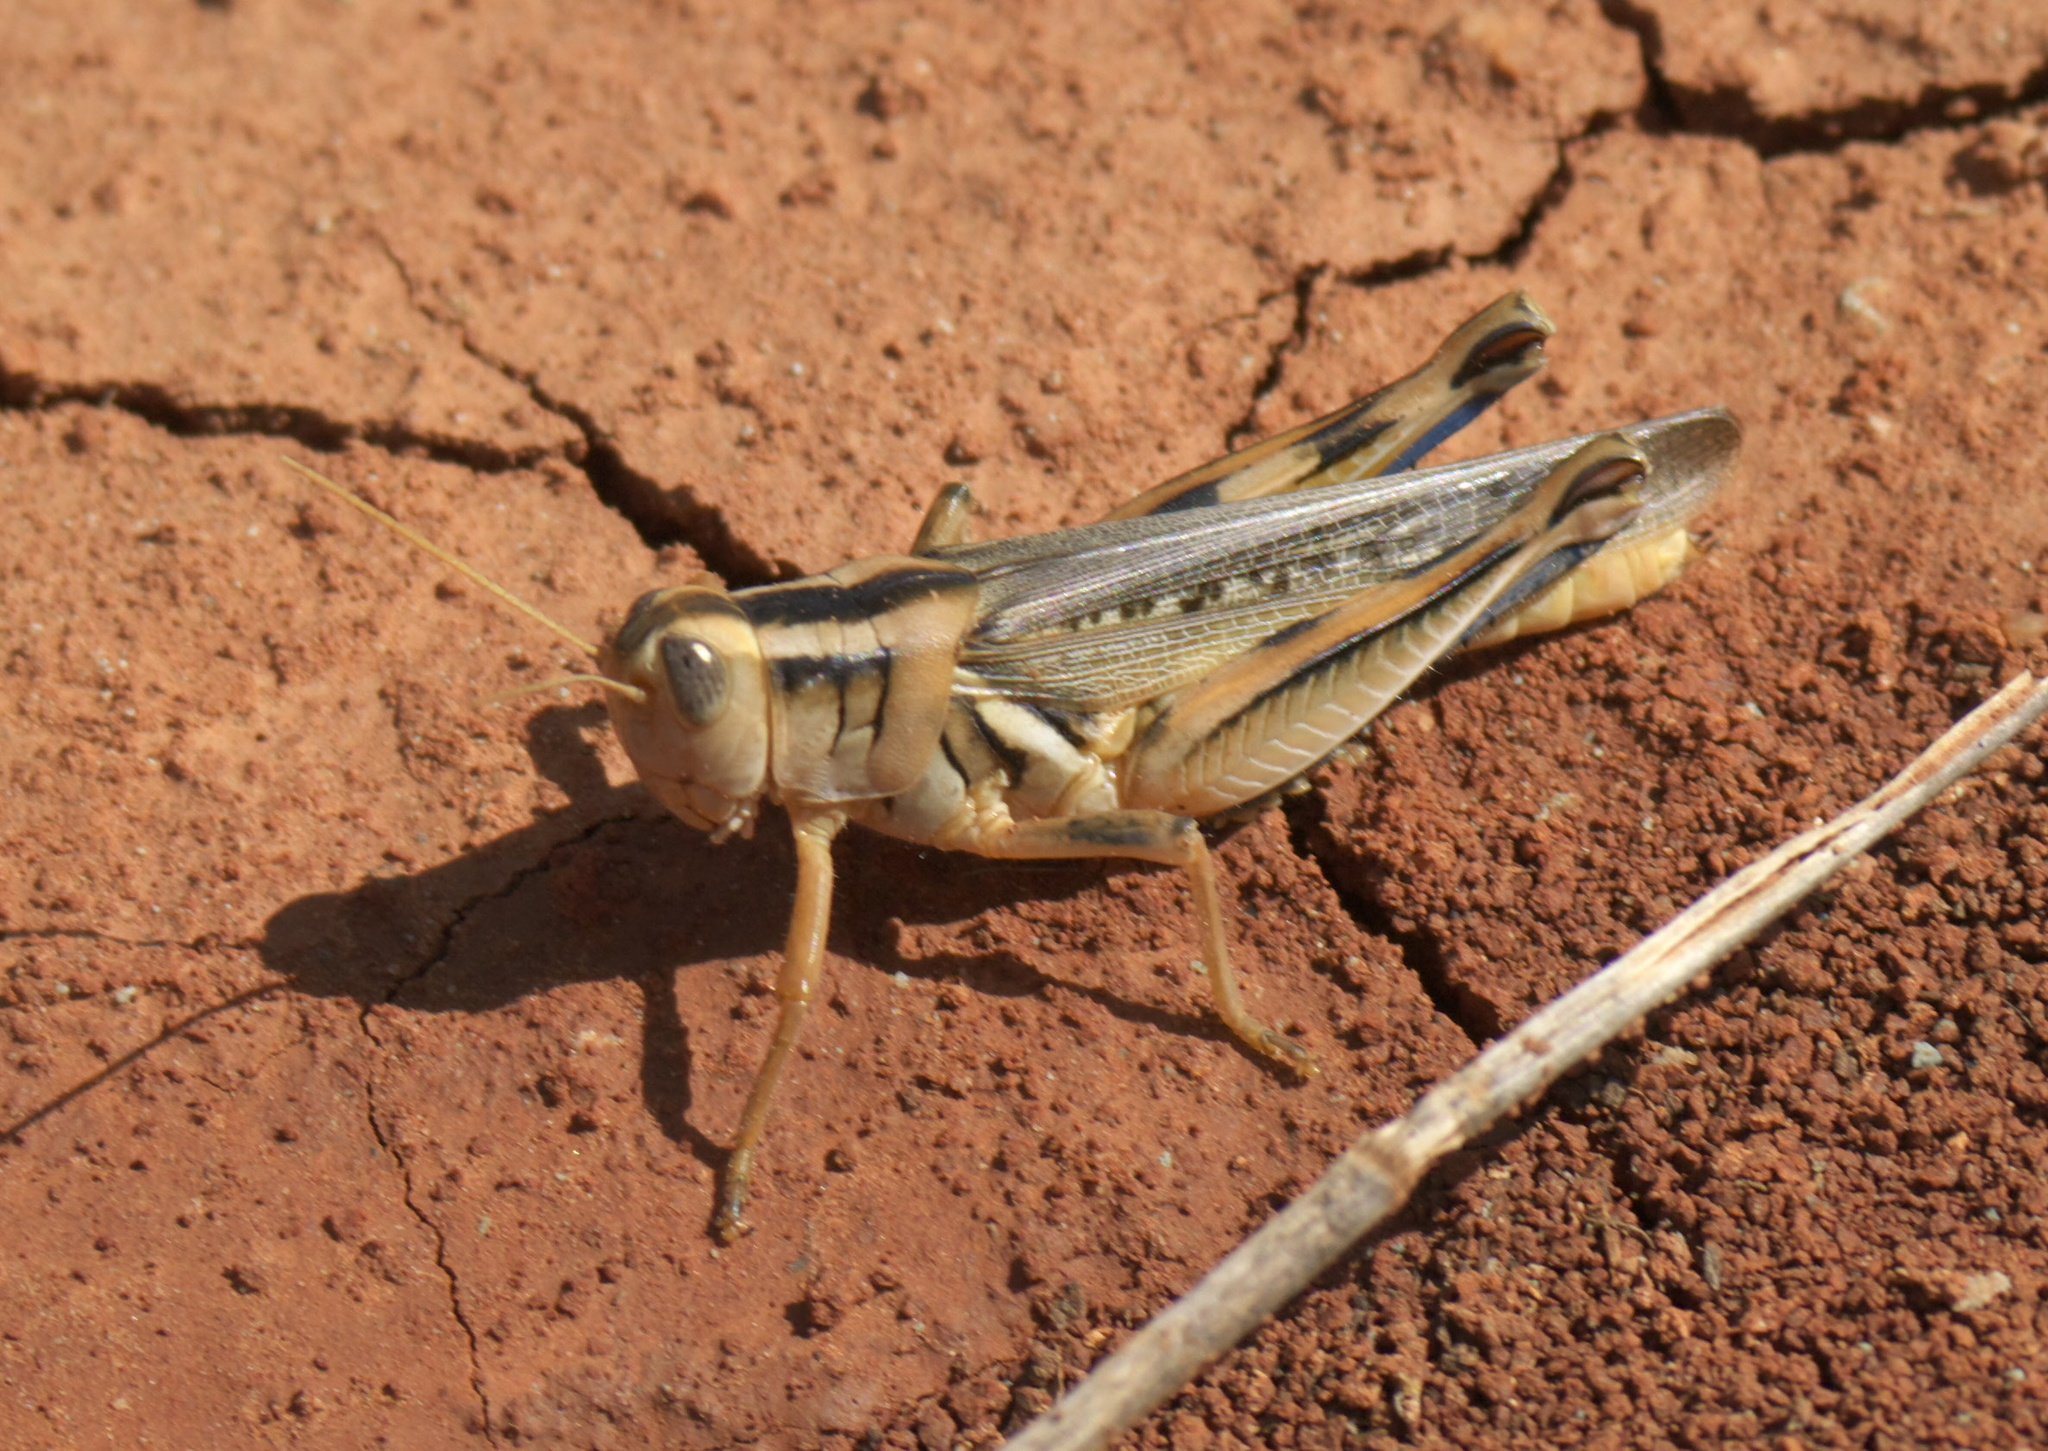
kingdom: Animalia
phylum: Arthropoda
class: Insecta
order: Orthoptera
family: Acrididae
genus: Melanoplus
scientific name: Melanoplus packardii
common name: Packard's grasshopper
